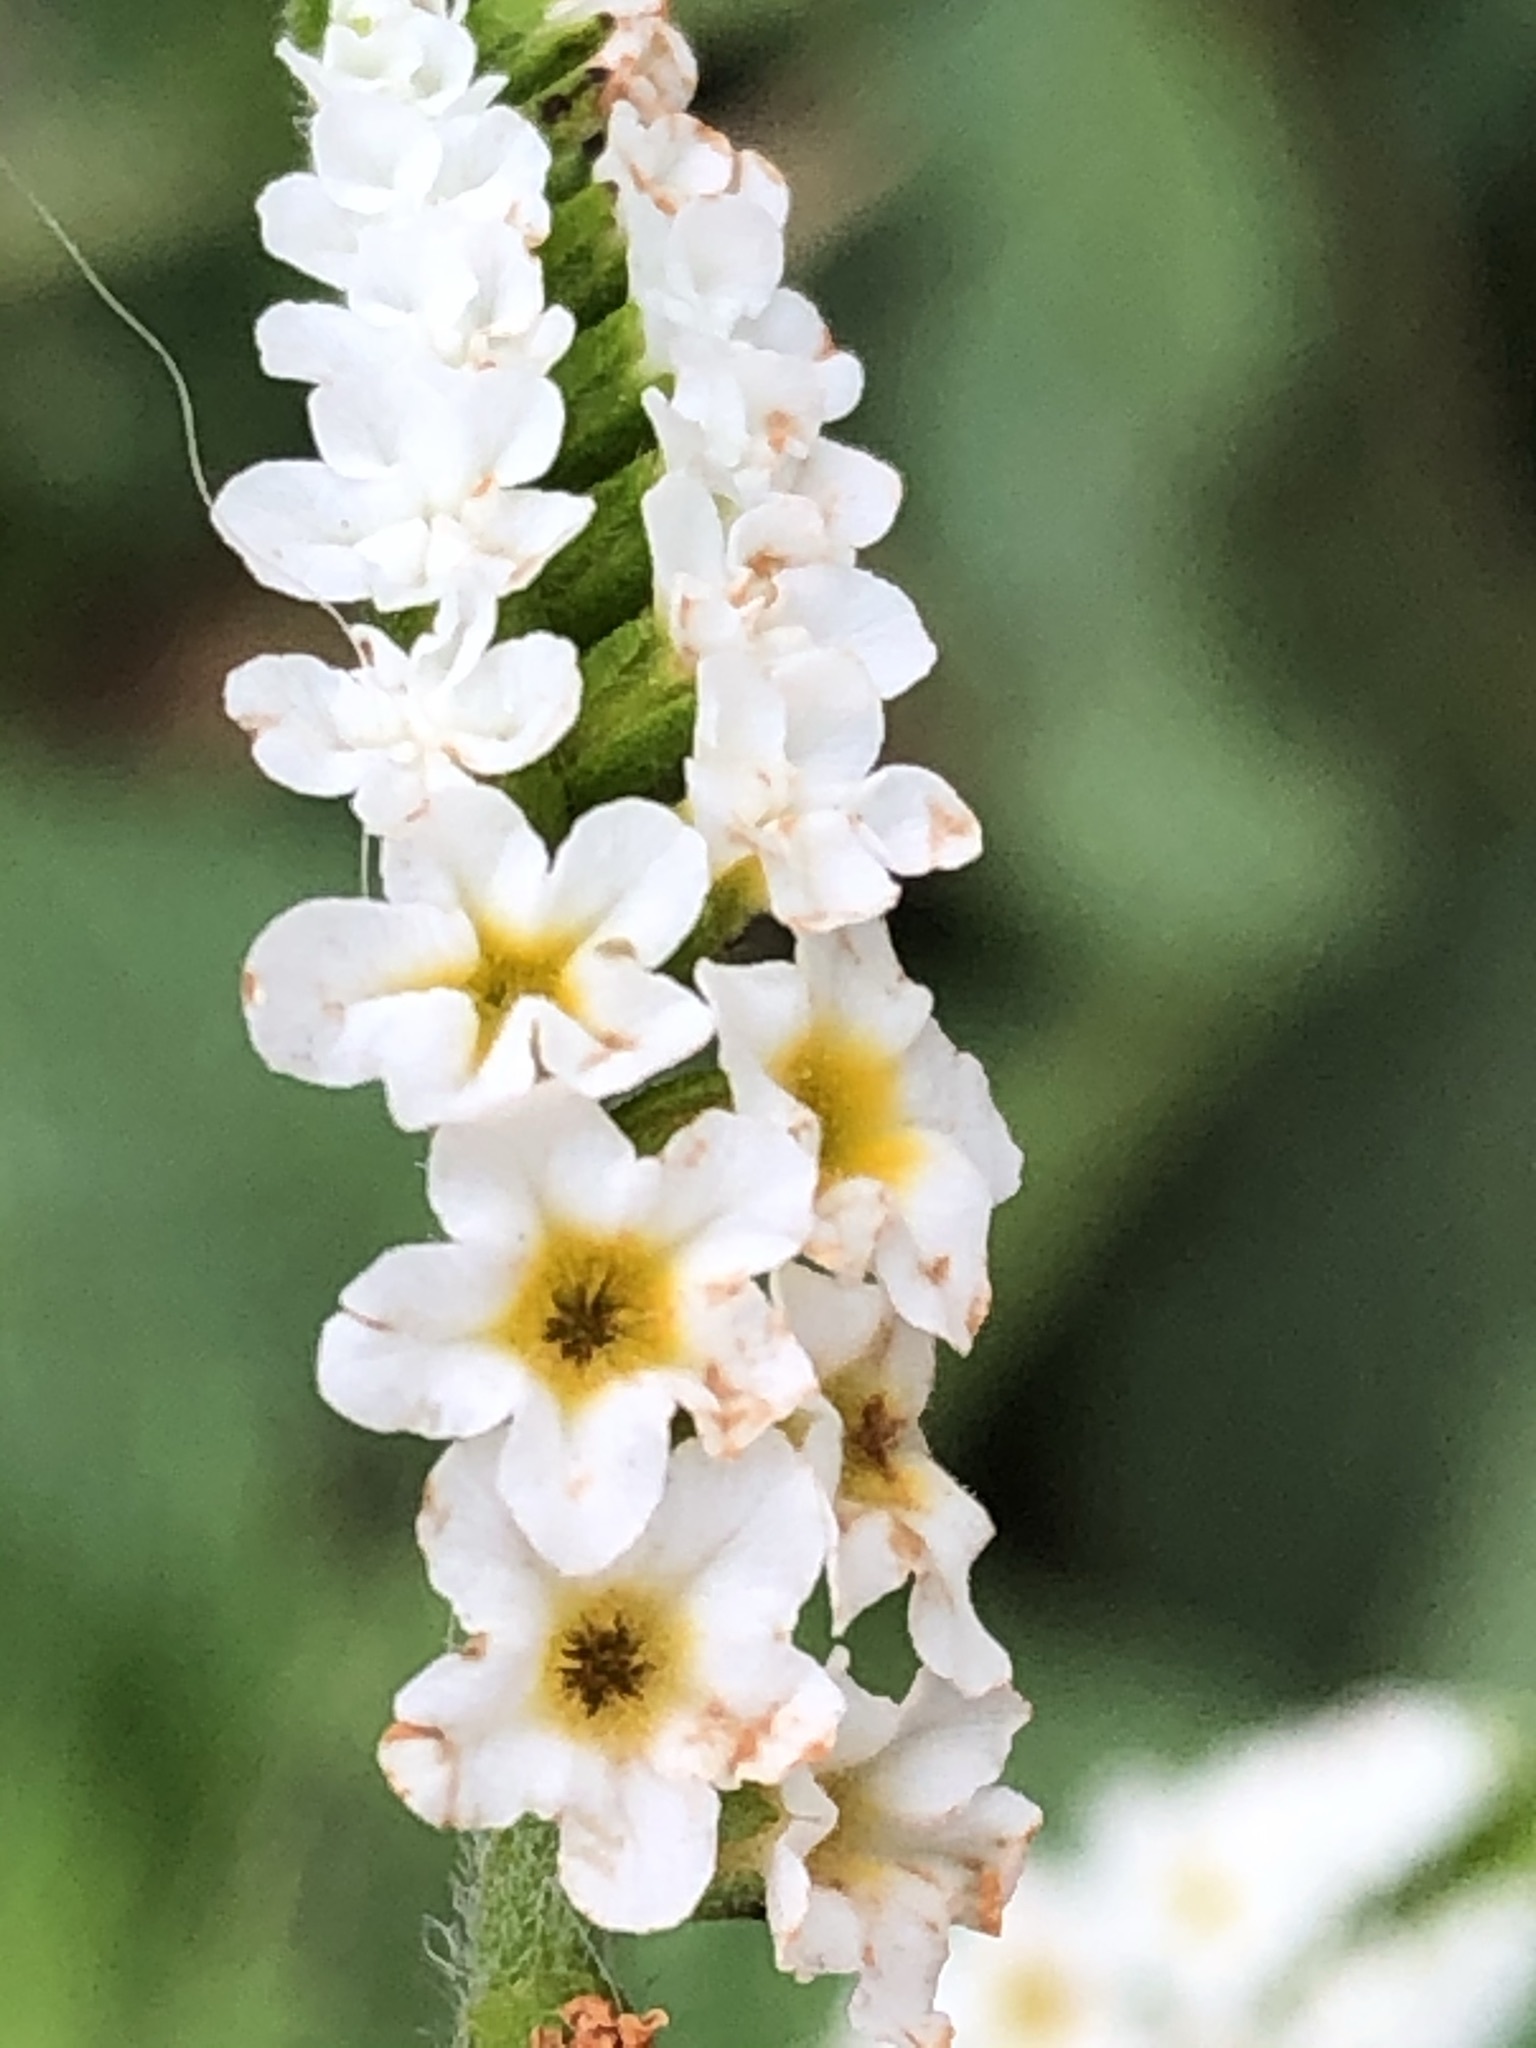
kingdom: Plantae
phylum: Tracheophyta
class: Magnoliopsida
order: Boraginales
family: Heliotropiaceae
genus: Heliotropium
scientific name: Heliotropium curassavicum
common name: Seaside heliotrope
